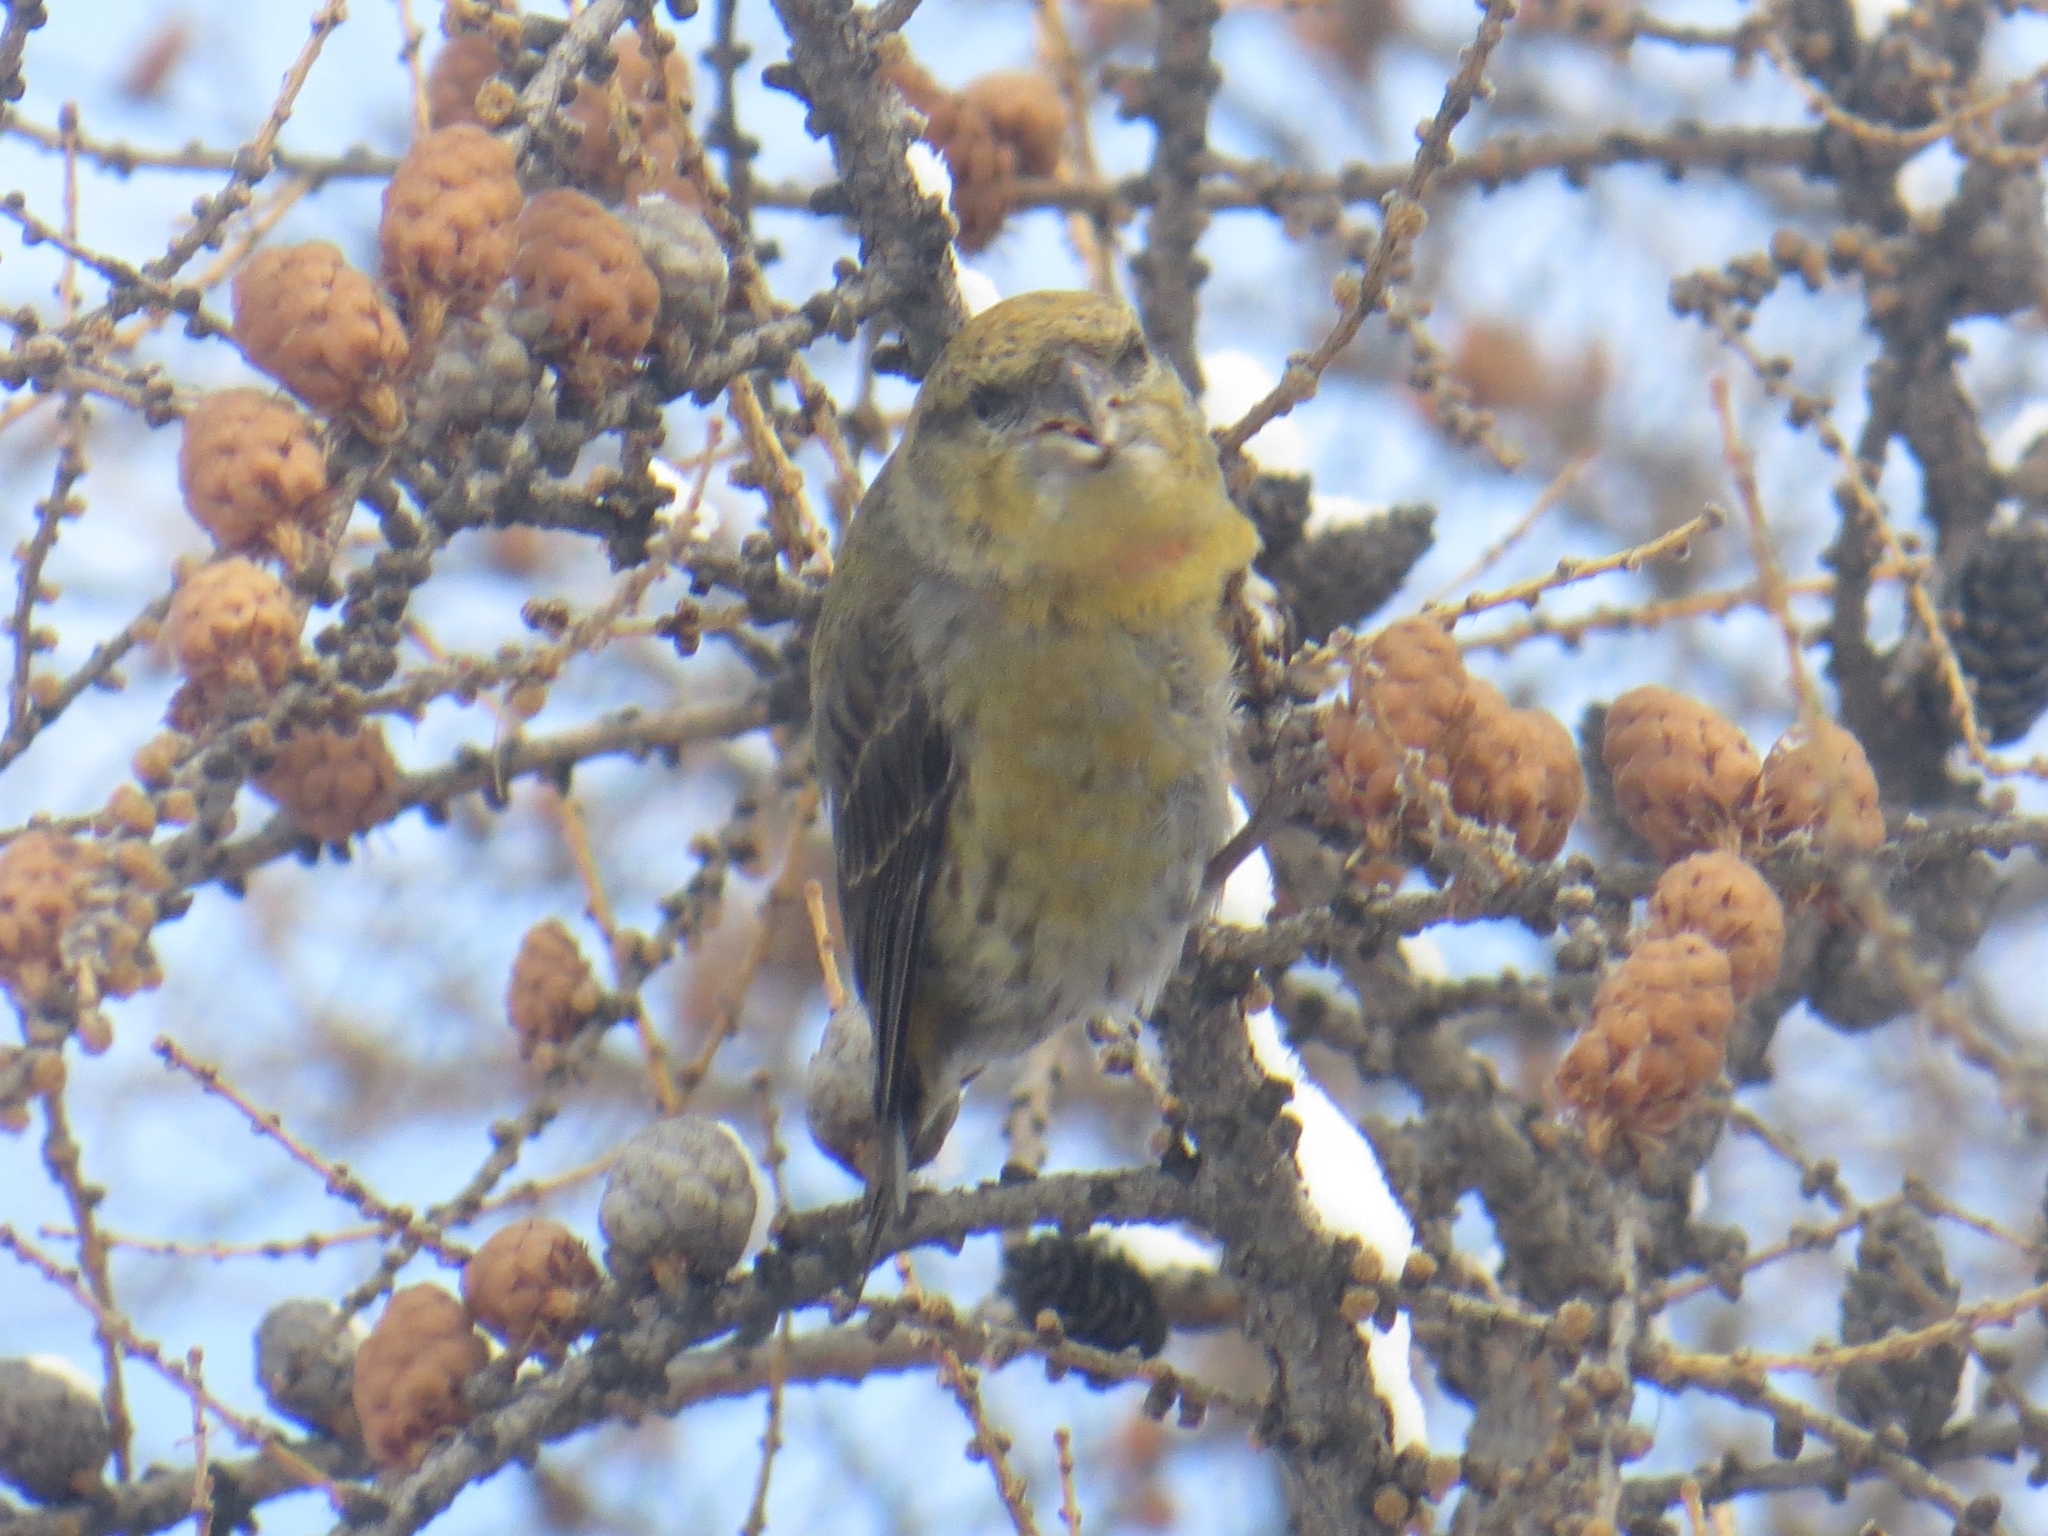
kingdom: Animalia
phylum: Chordata
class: Aves
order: Passeriformes
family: Fringillidae
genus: Loxia
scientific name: Loxia curvirostra
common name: Red crossbill
